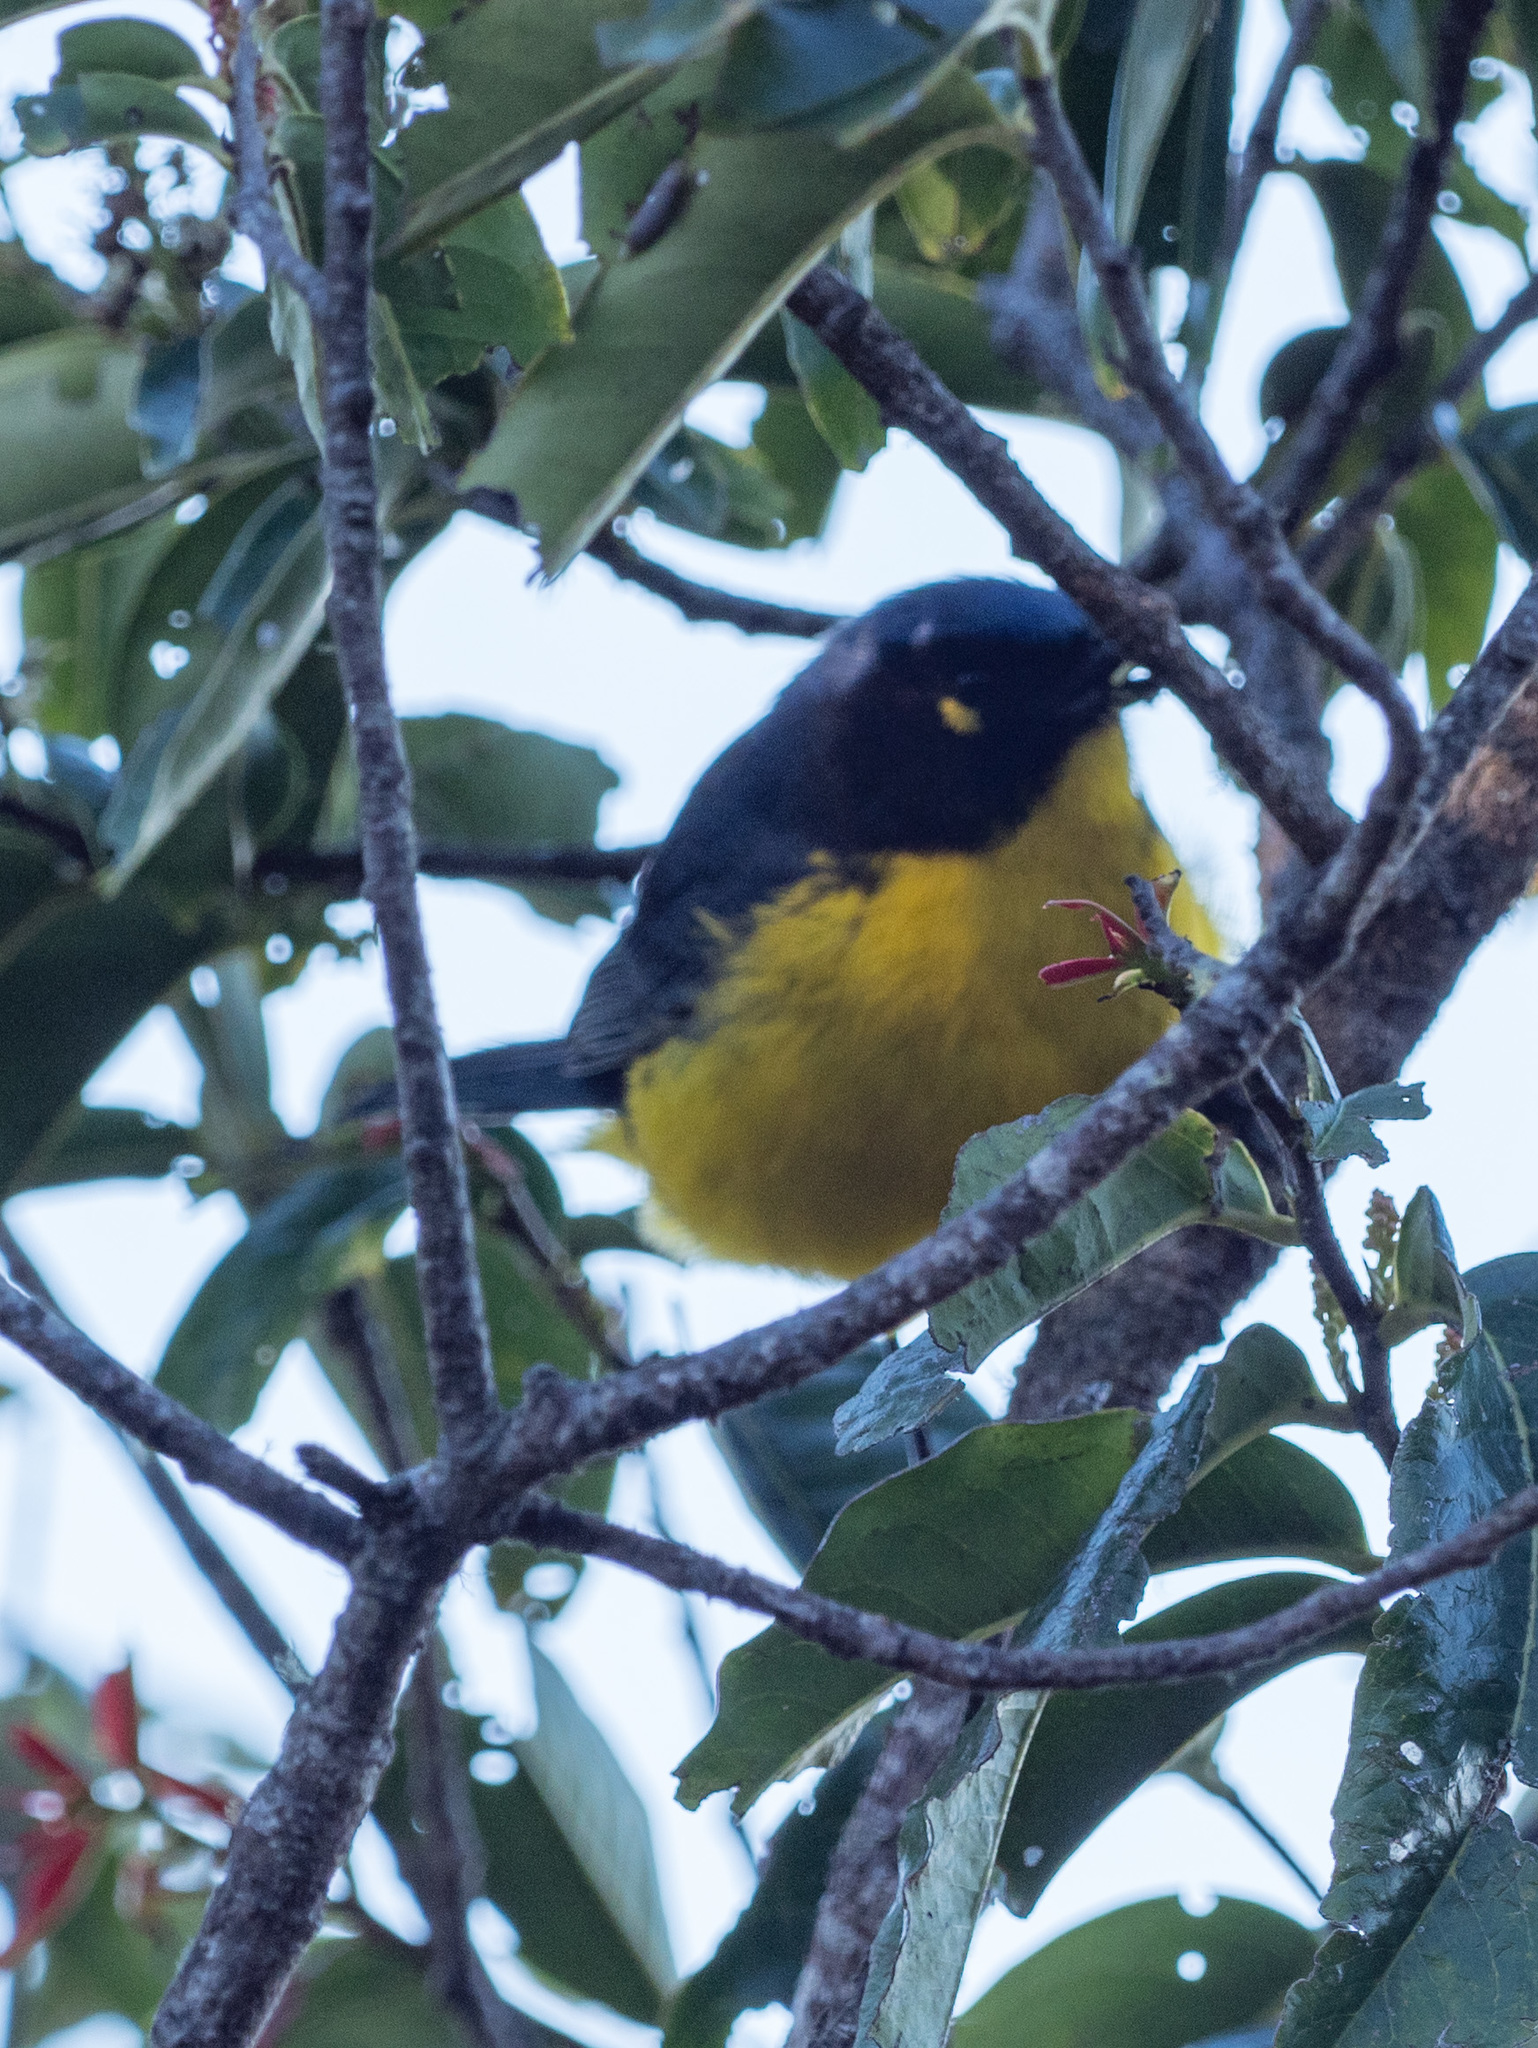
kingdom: Animalia
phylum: Chordata
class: Aves
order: Passeriformes
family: Thraupidae
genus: Anisognathus
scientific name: Anisognathus melanogenys
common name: Santa marta mountain tanager
